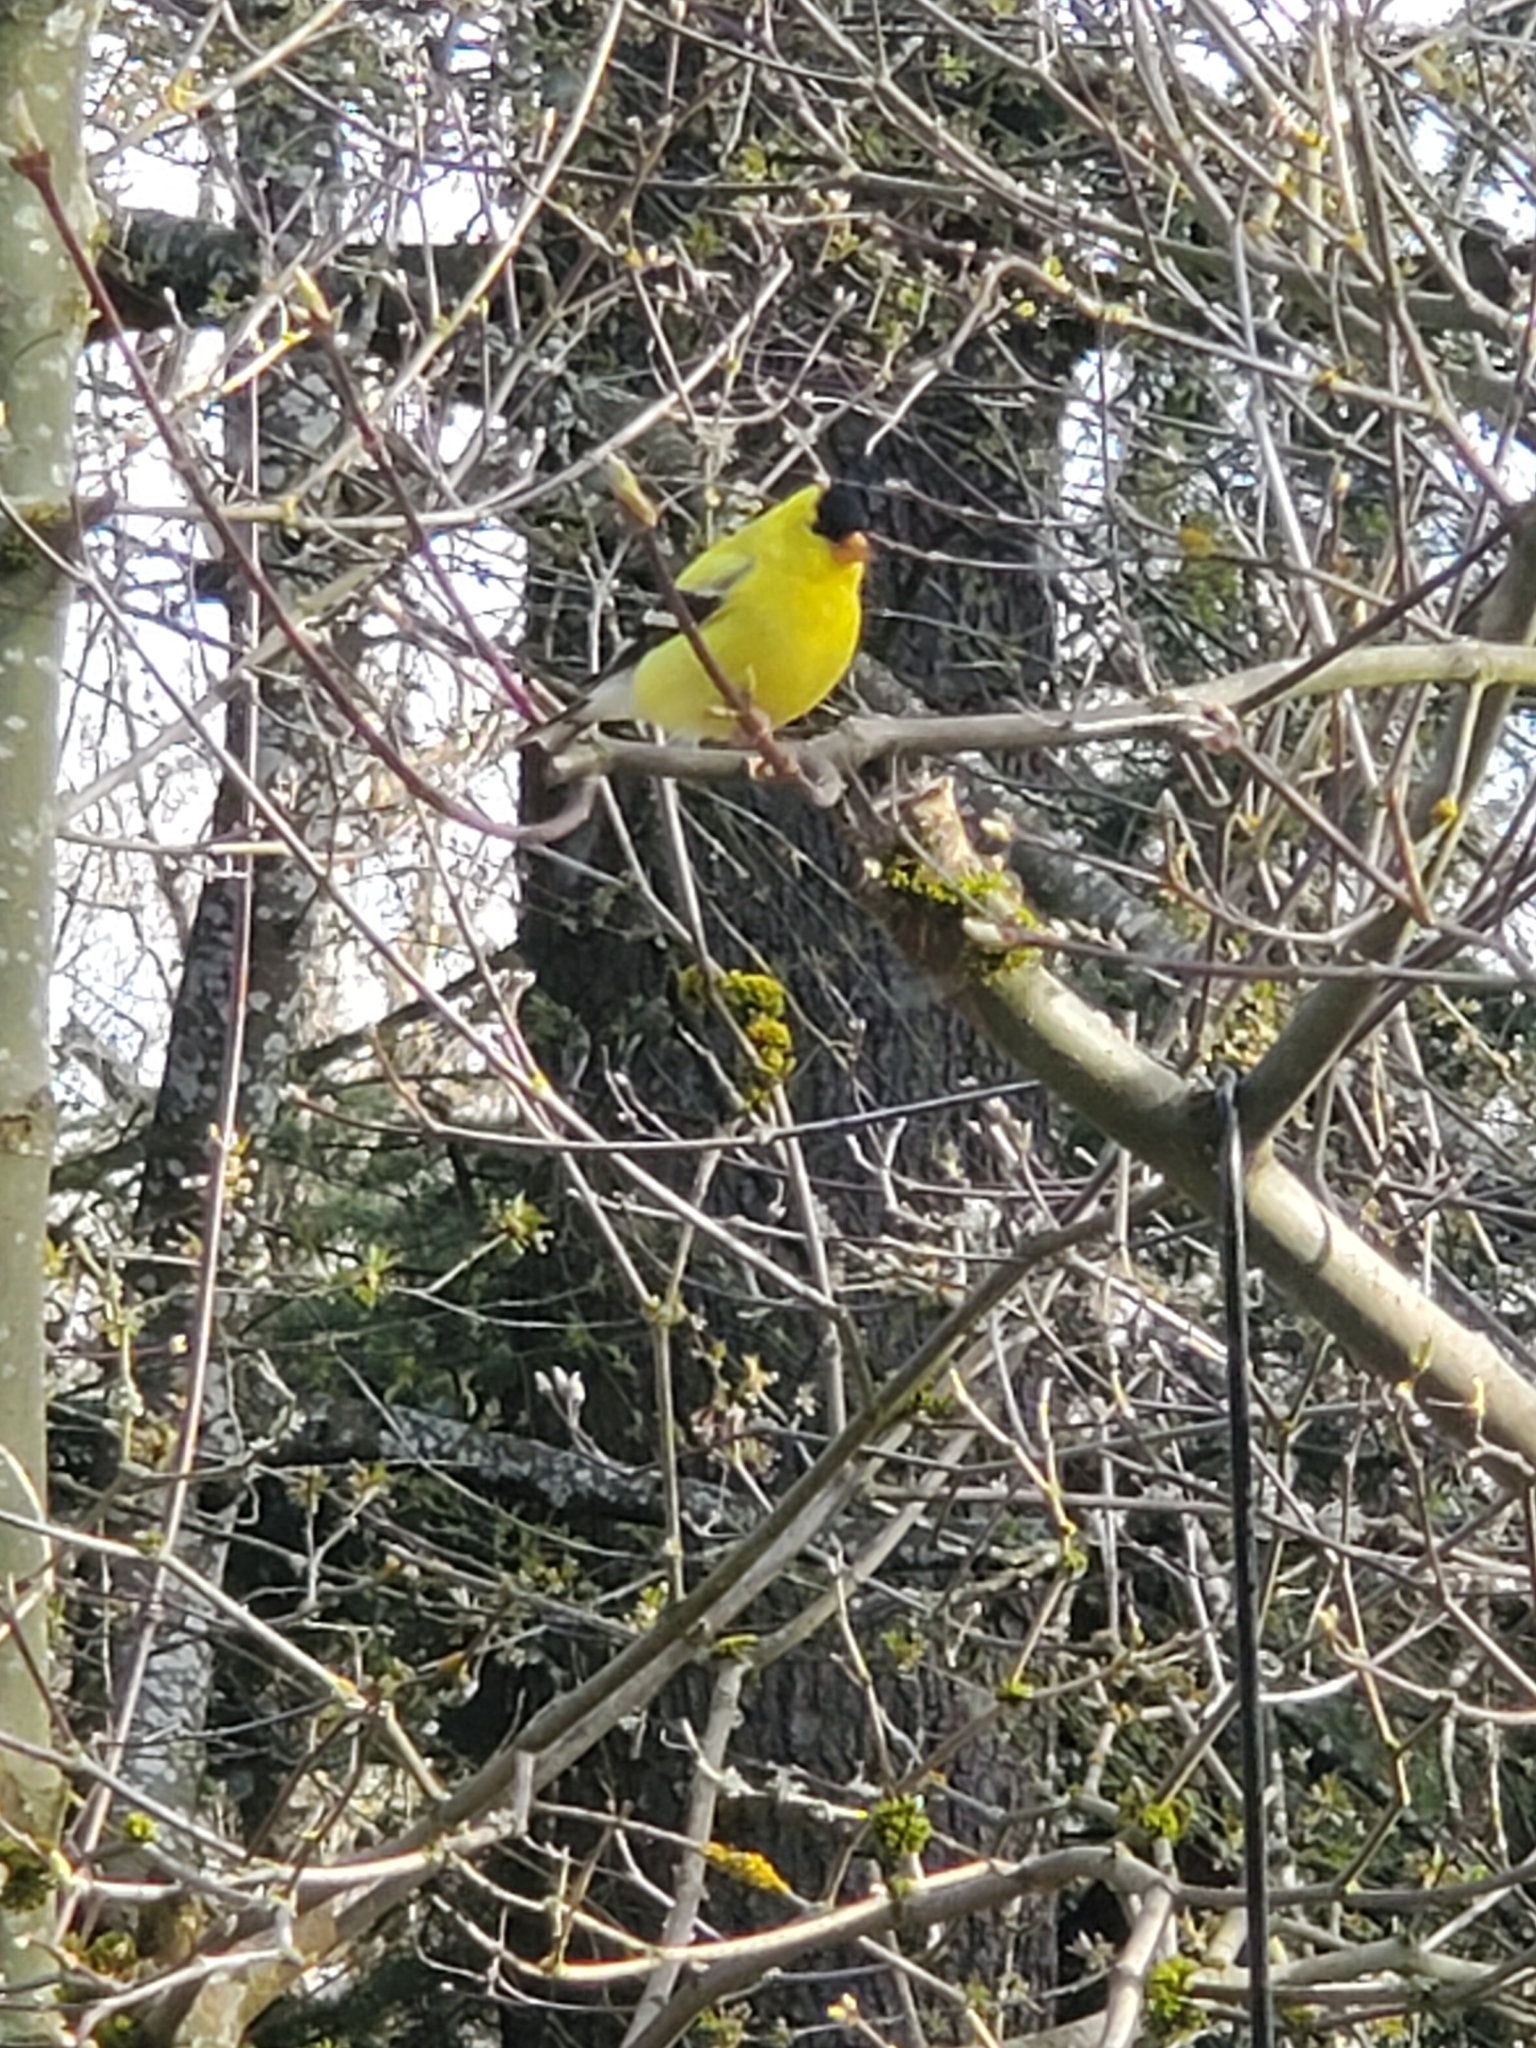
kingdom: Animalia
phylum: Chordata
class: Aves
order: Passeriformes
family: Fringillidae
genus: Spinus
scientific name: Spinus tristis
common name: American goldfinch
